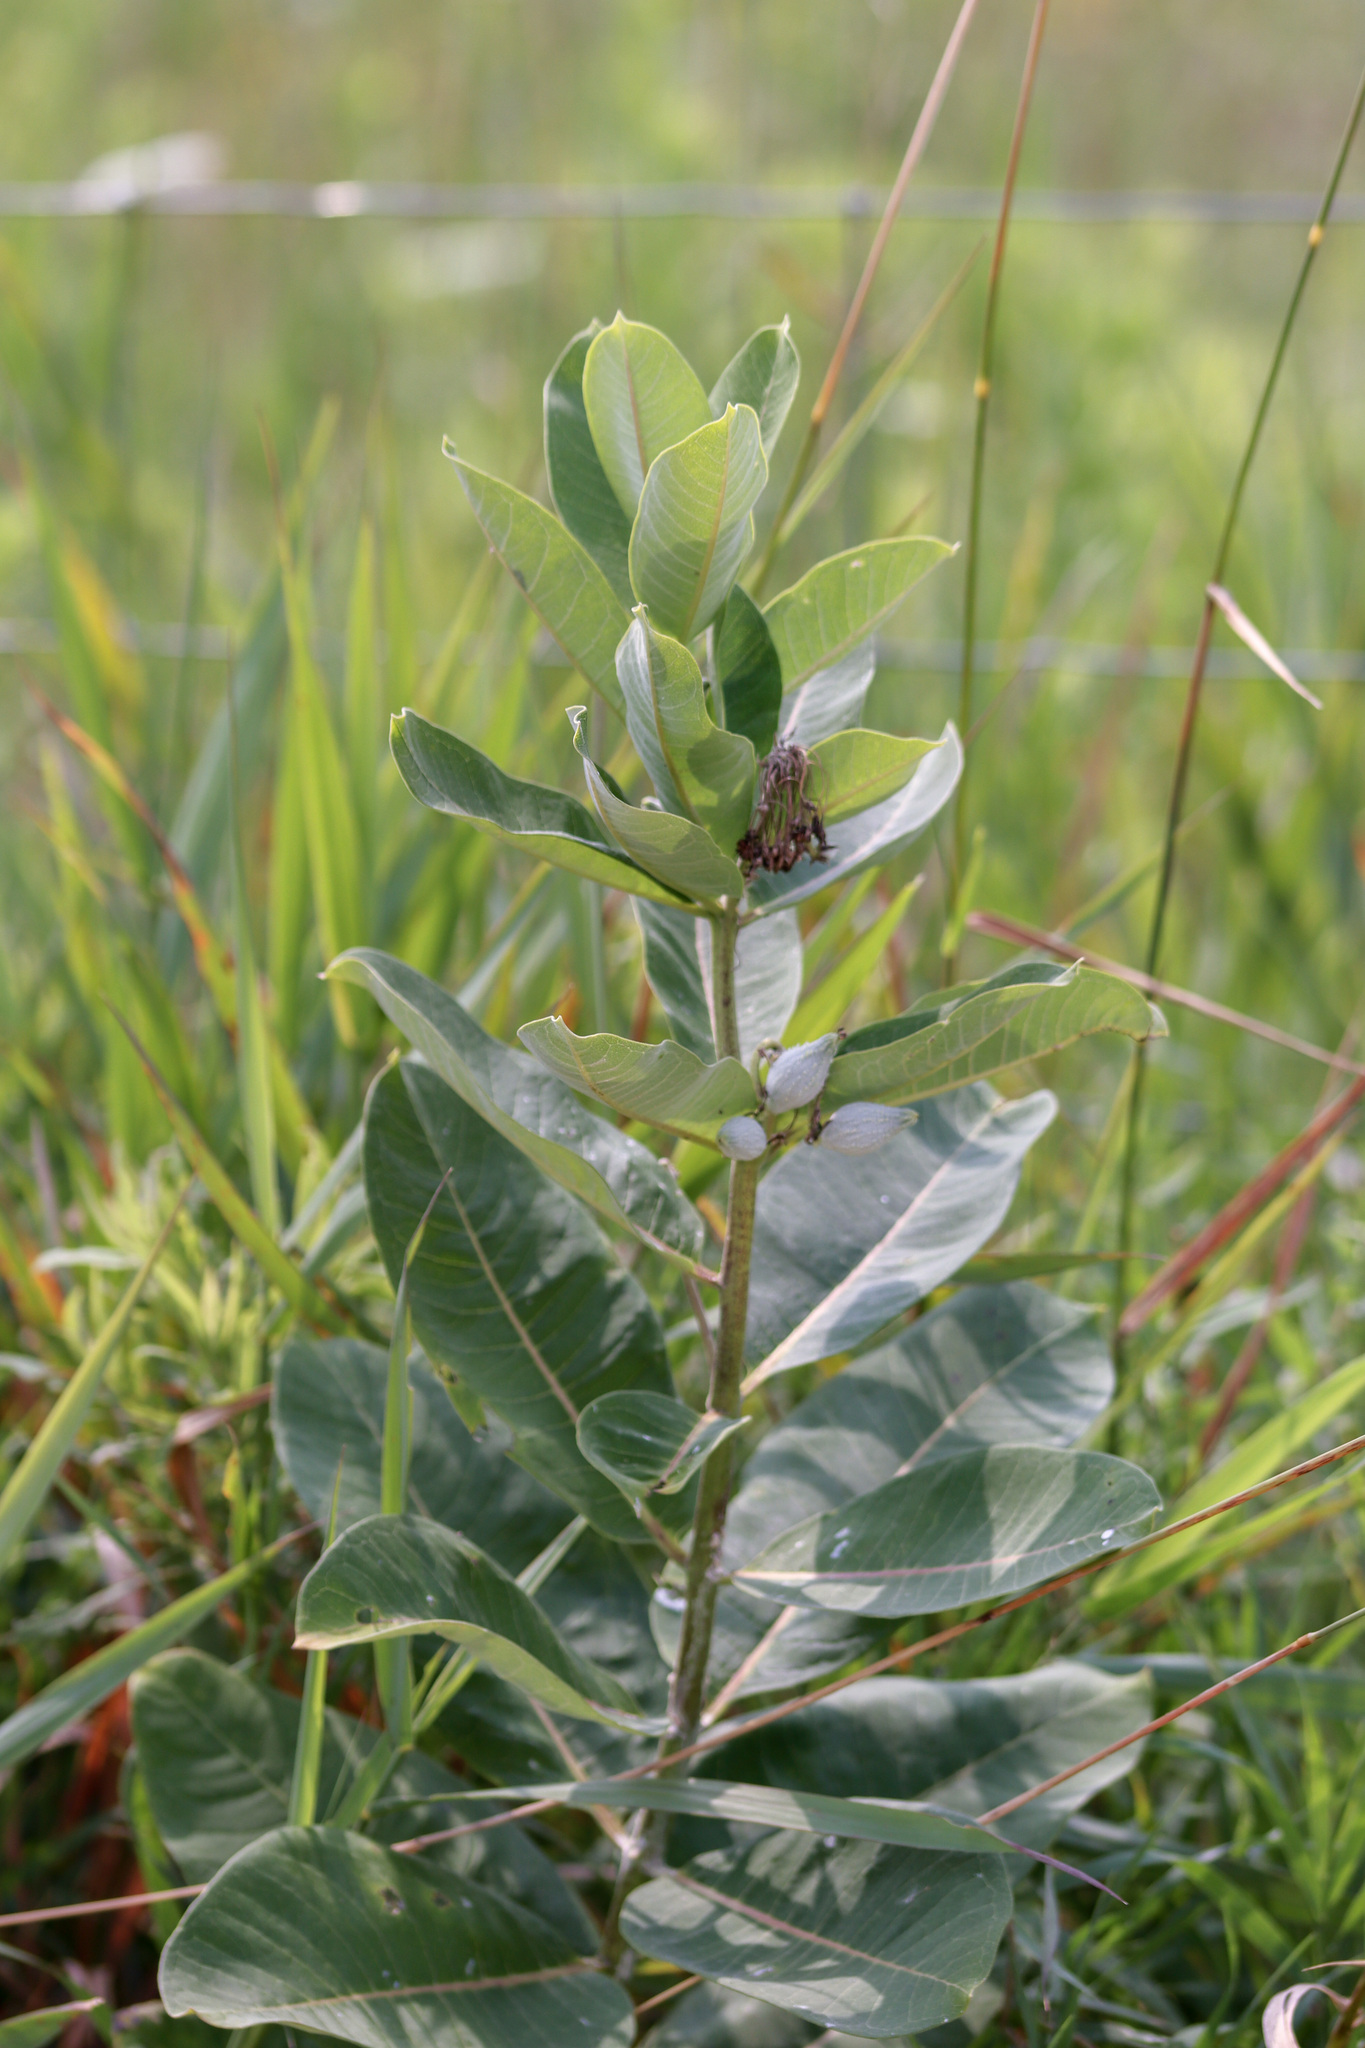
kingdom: Plantae
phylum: Tracheophyta
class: Magnoliopsida
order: Gentianales
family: Apocynaceae
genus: Asclepias
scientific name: Asclepias syriaca
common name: Common milkweed
